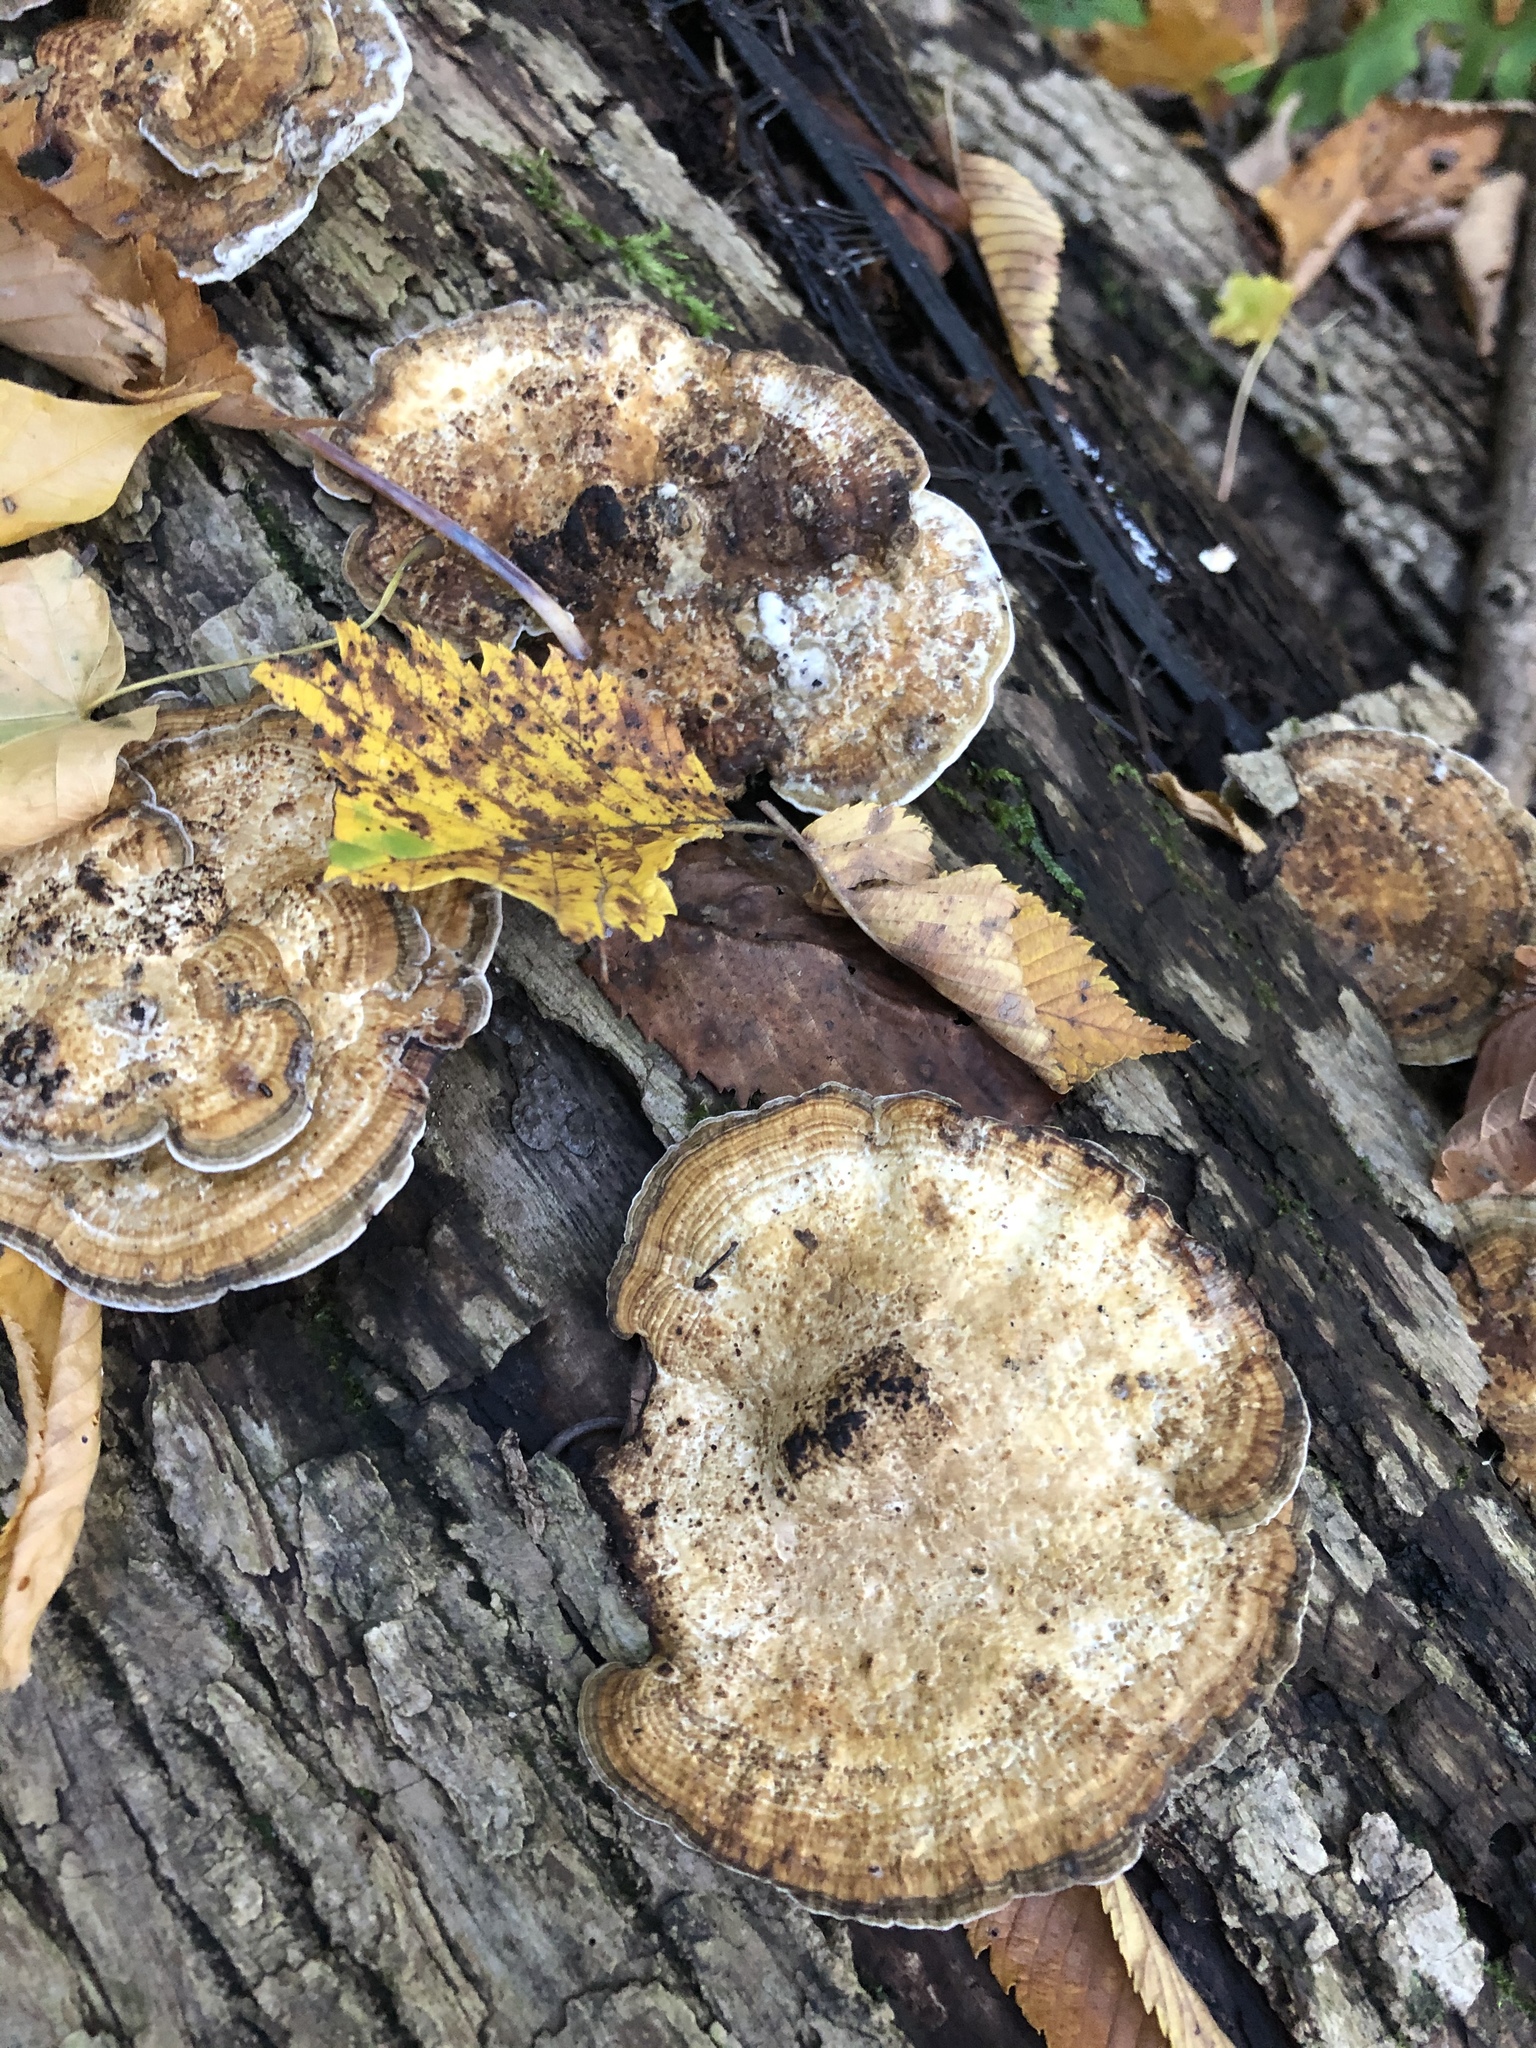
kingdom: Fungi
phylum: Basidiomycota
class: Agaricomycetes
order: Polyporales
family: Polyporaceae
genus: Daedaleopsis
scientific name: Daedaleopsis confragosa
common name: Blushing bracket
